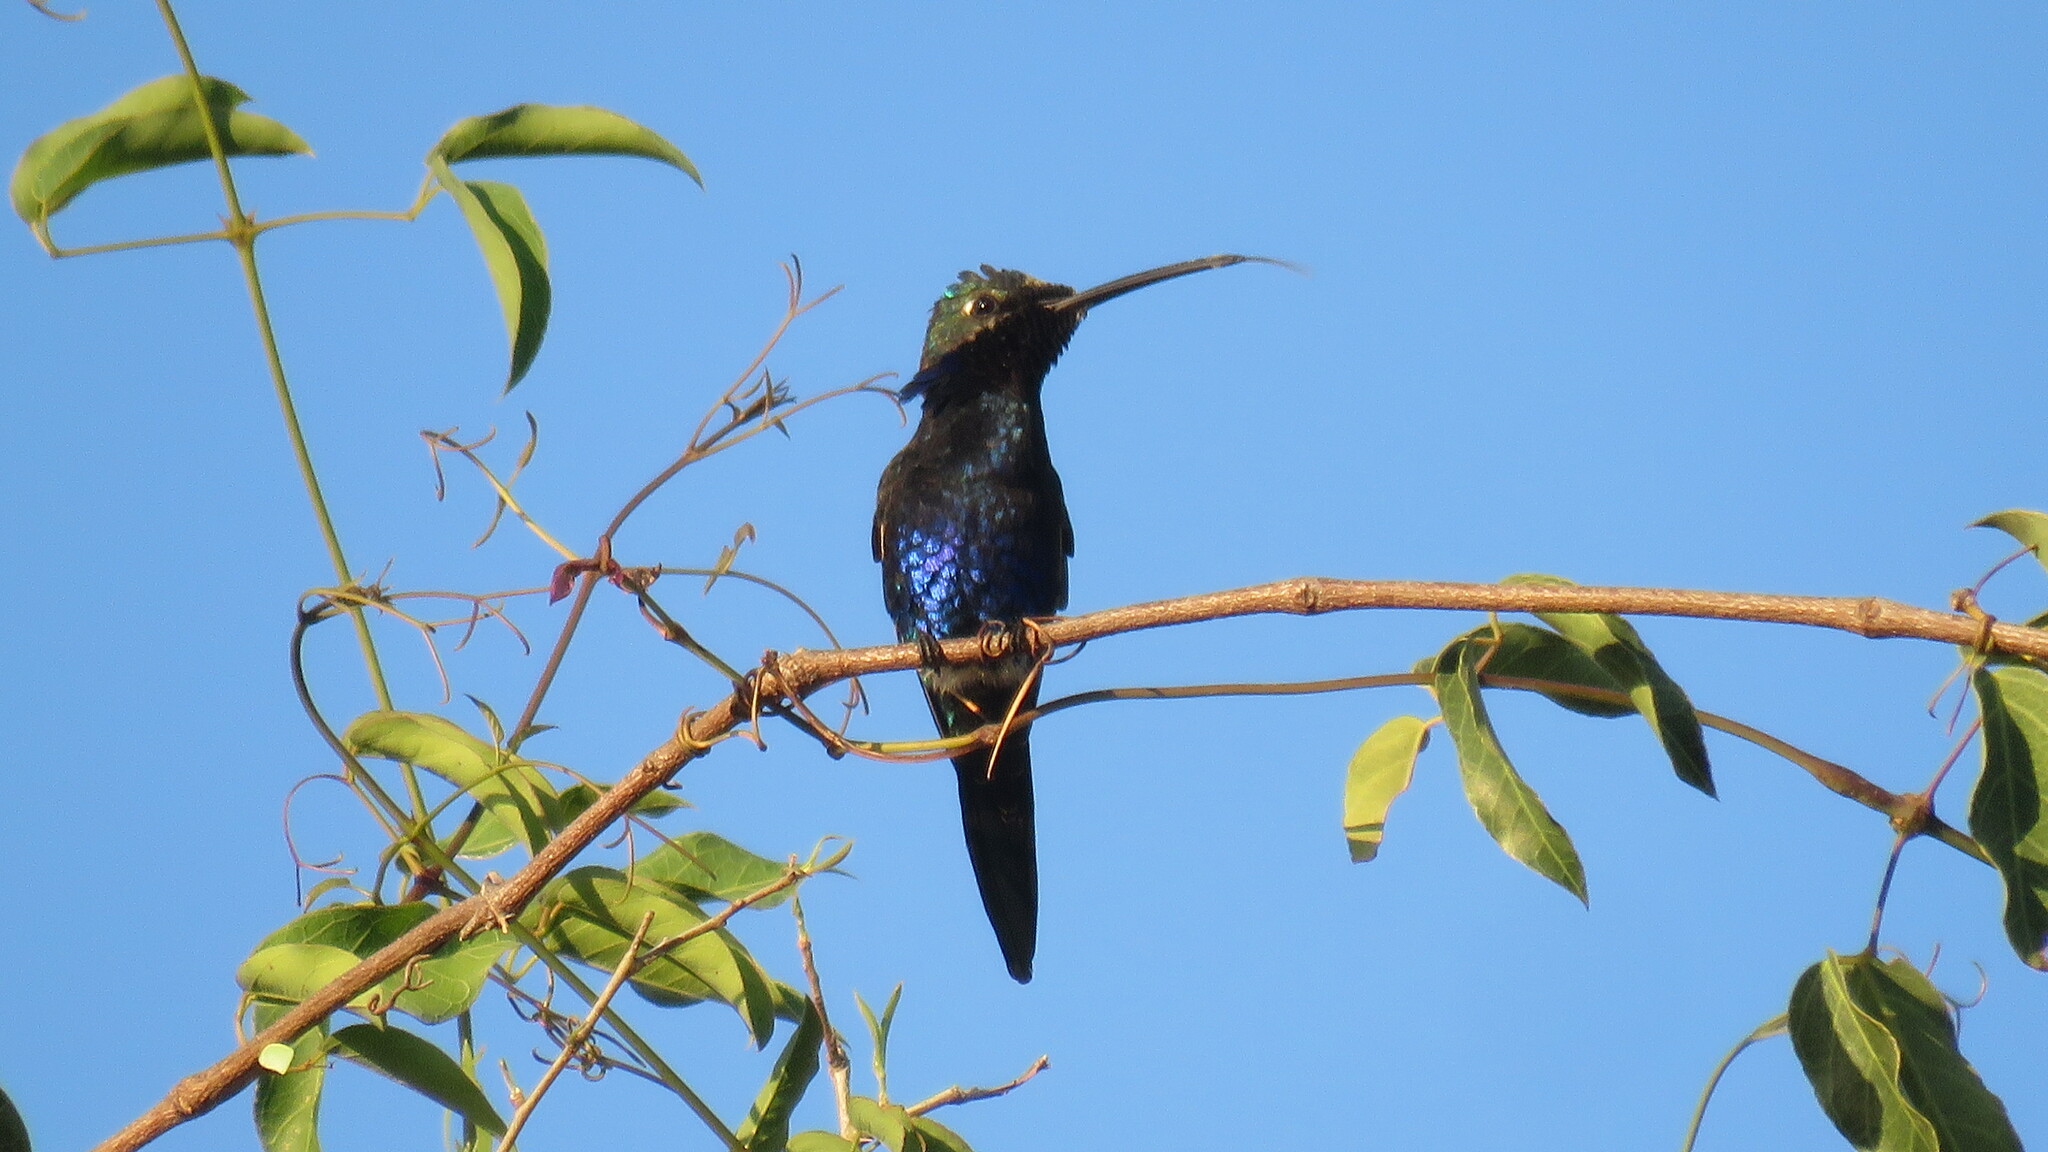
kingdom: Animalia
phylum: Chordata
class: Aves
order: Apodiformes
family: Trochilidae
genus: Heliomaster
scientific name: Heliomaster furcifer
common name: Blue-tufted starthroat
